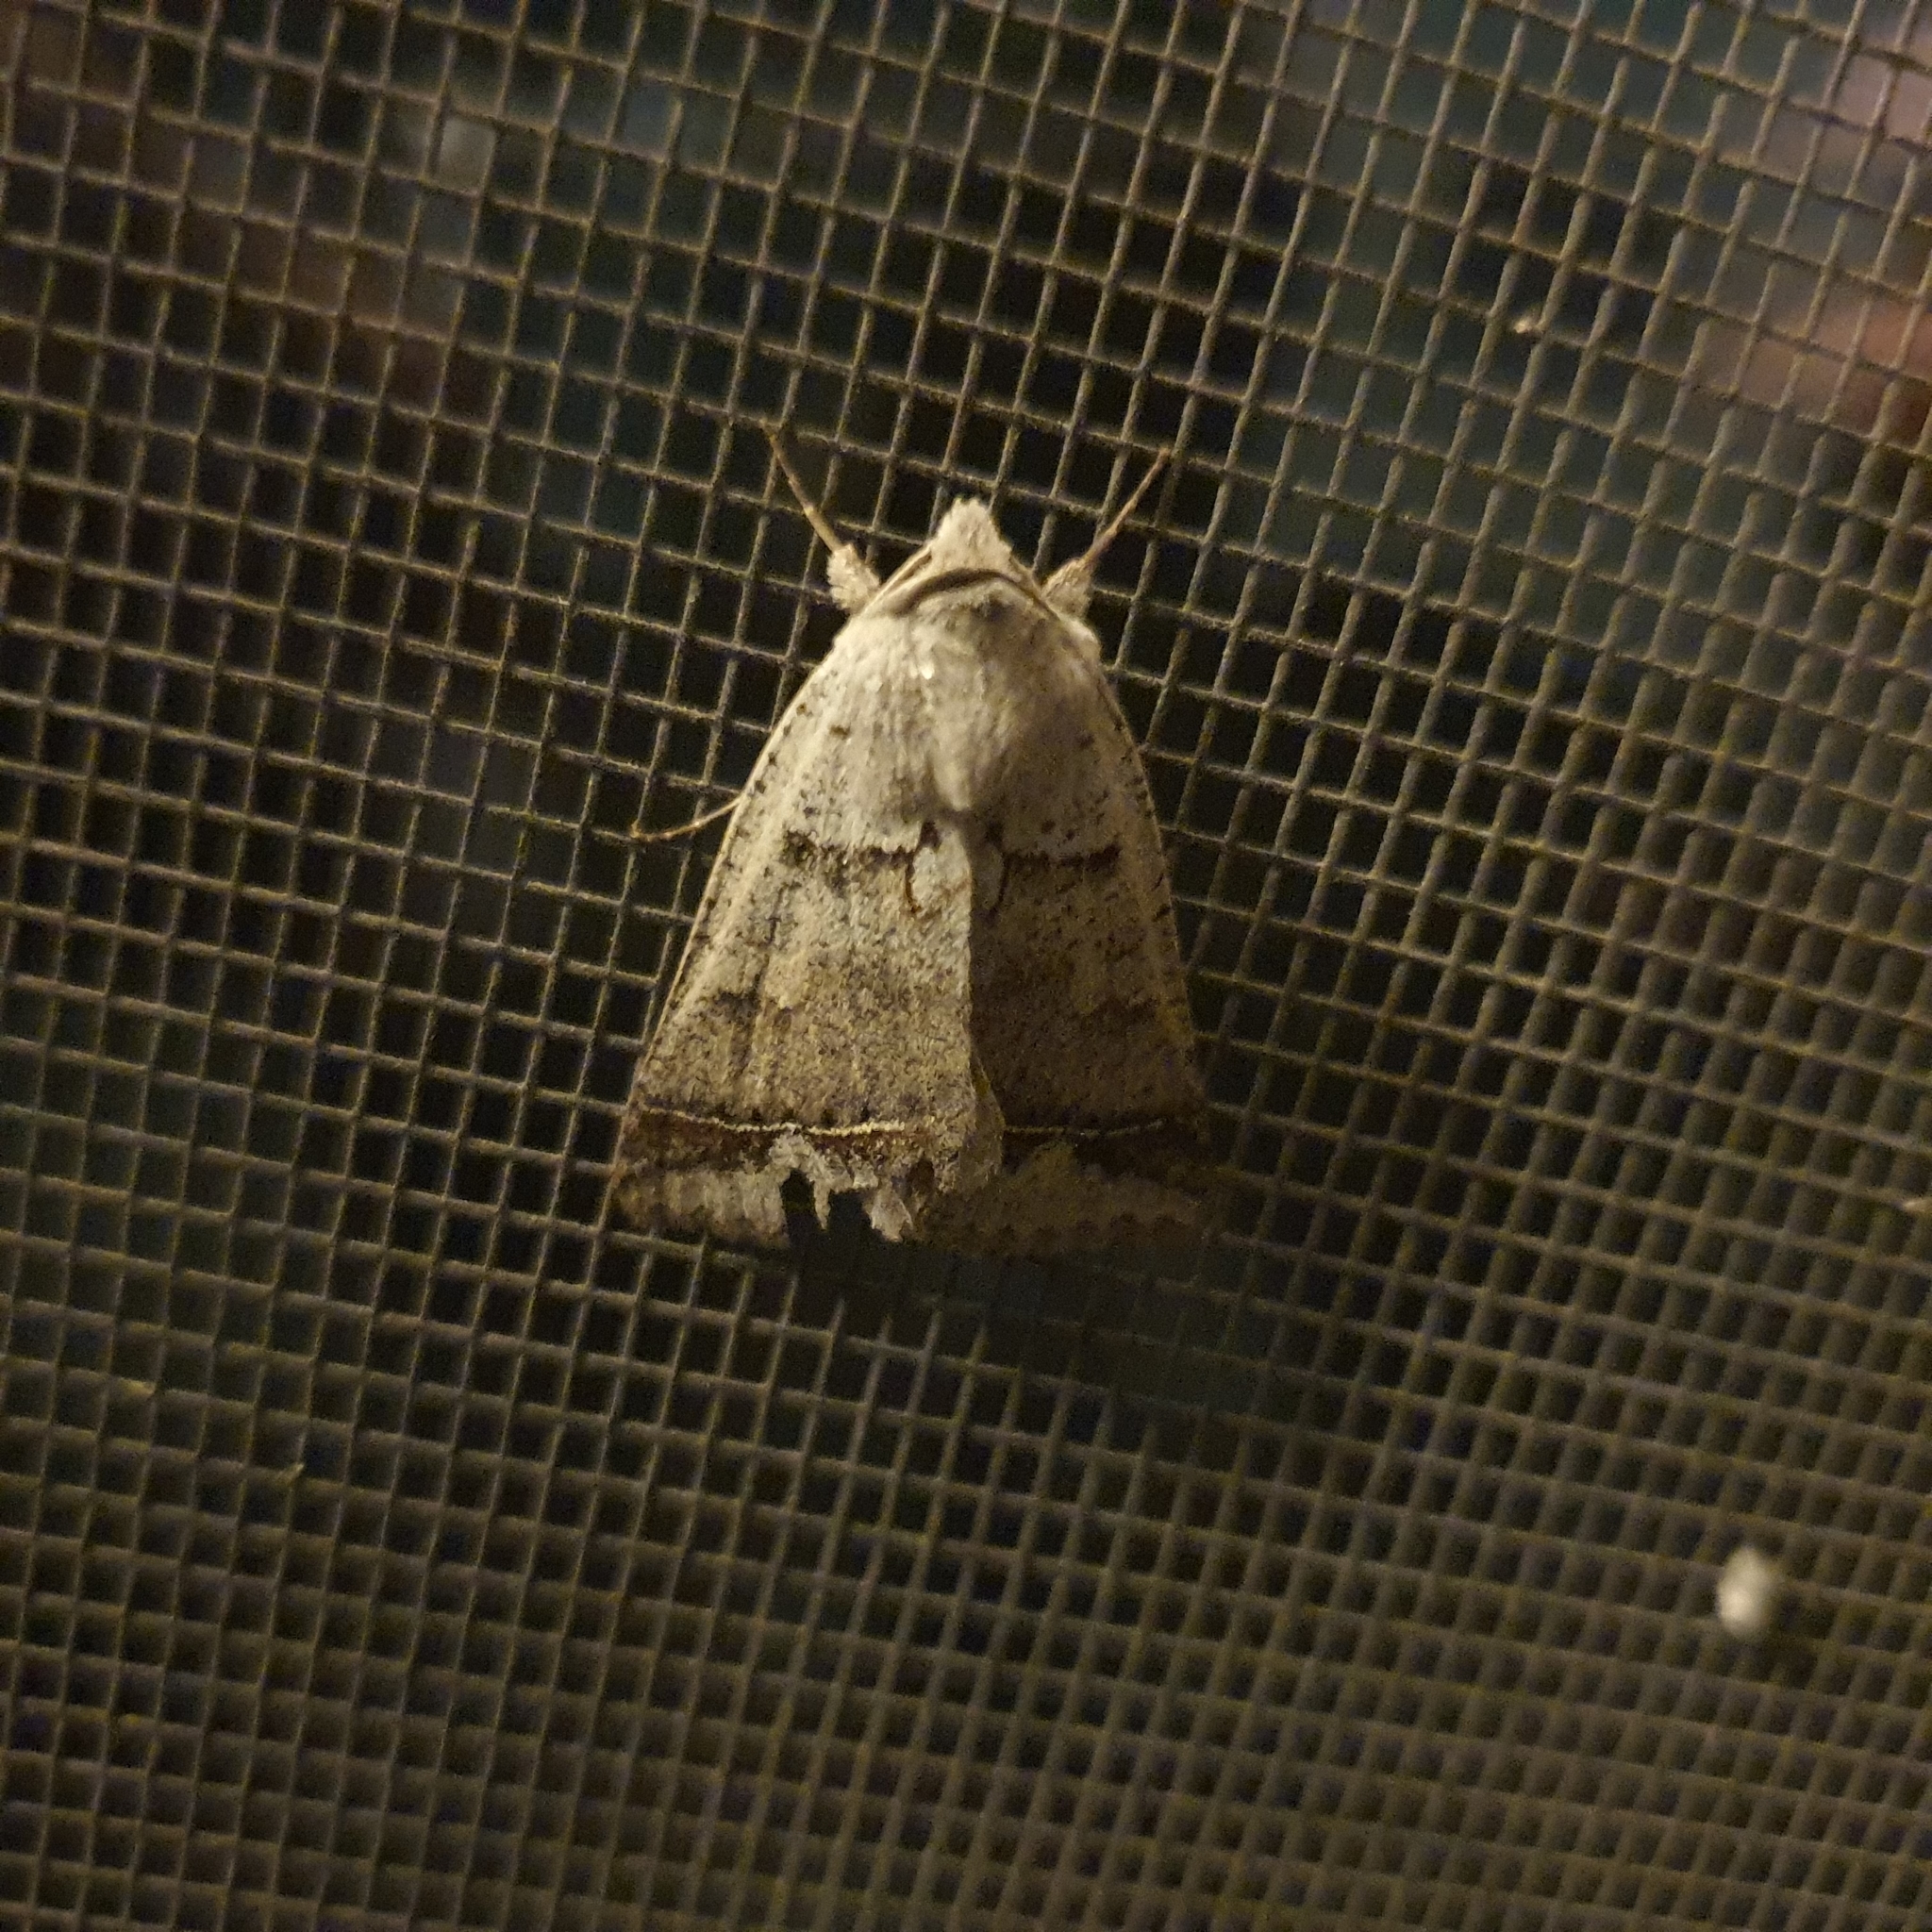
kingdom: Animalia
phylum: Arthropoda
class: Insecta
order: Lepidoptera
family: Erebidae
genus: Pantydia
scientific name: Pantydia sparsa
